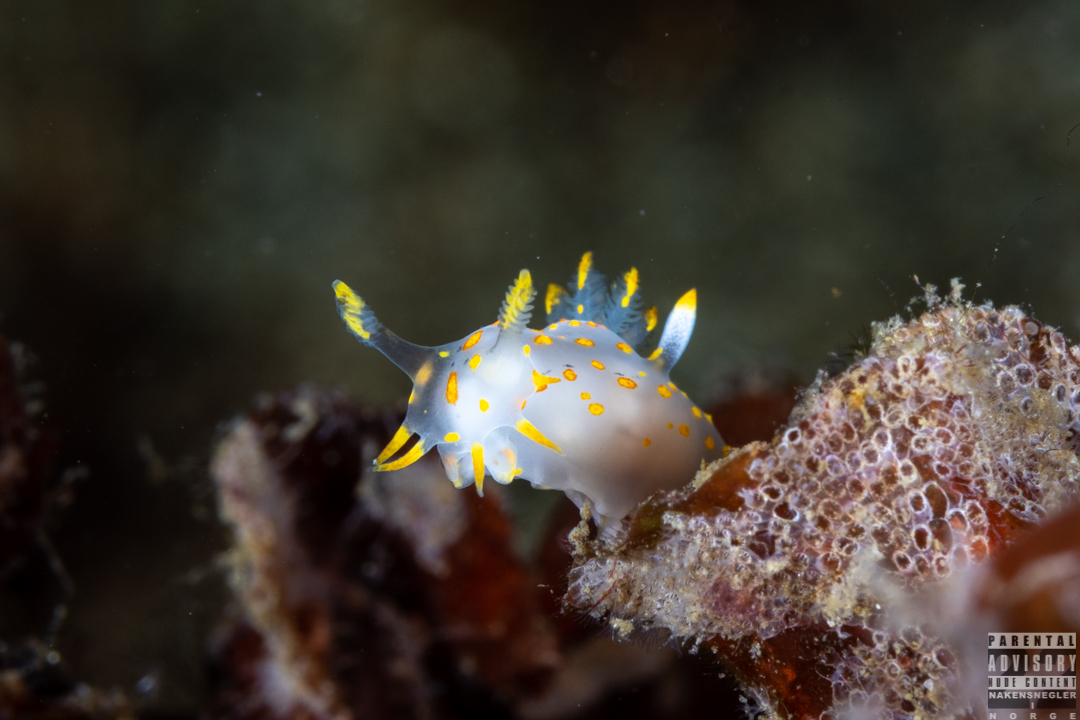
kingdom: Animalia
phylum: Mollusca
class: Gastropoda
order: Nudibranchia
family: Polyceridae
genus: Polycera
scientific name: Polycera norvegica
